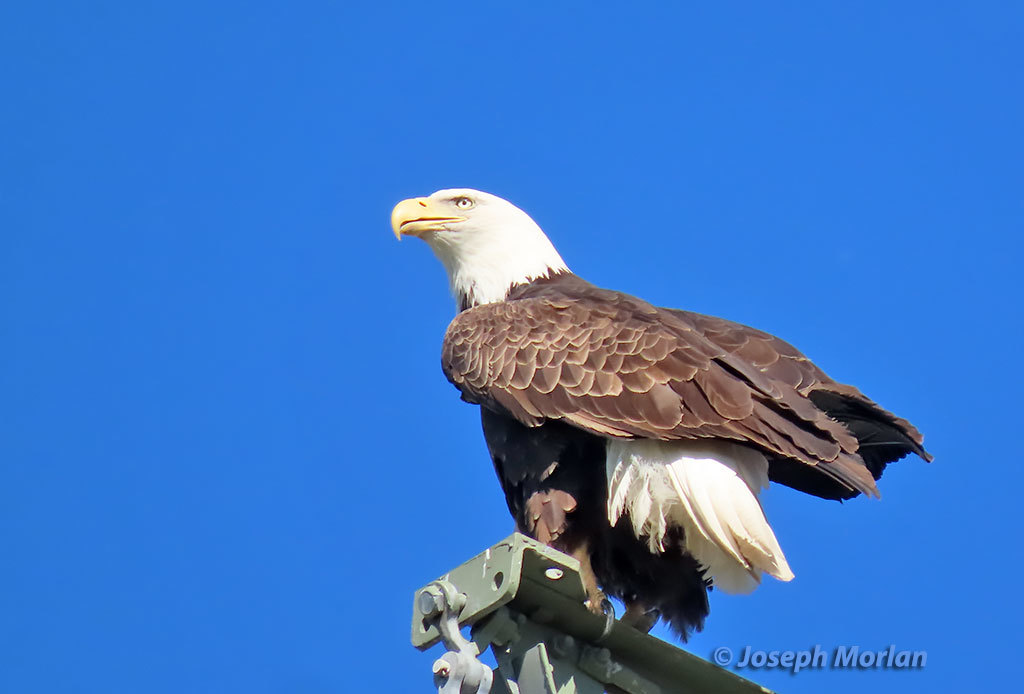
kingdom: Animalia
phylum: Chordata
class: Aves
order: Accipitriformes
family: Accipitridae
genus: Haliaeetus
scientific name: Haliaeetus leucocephalus
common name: Bald eagle
